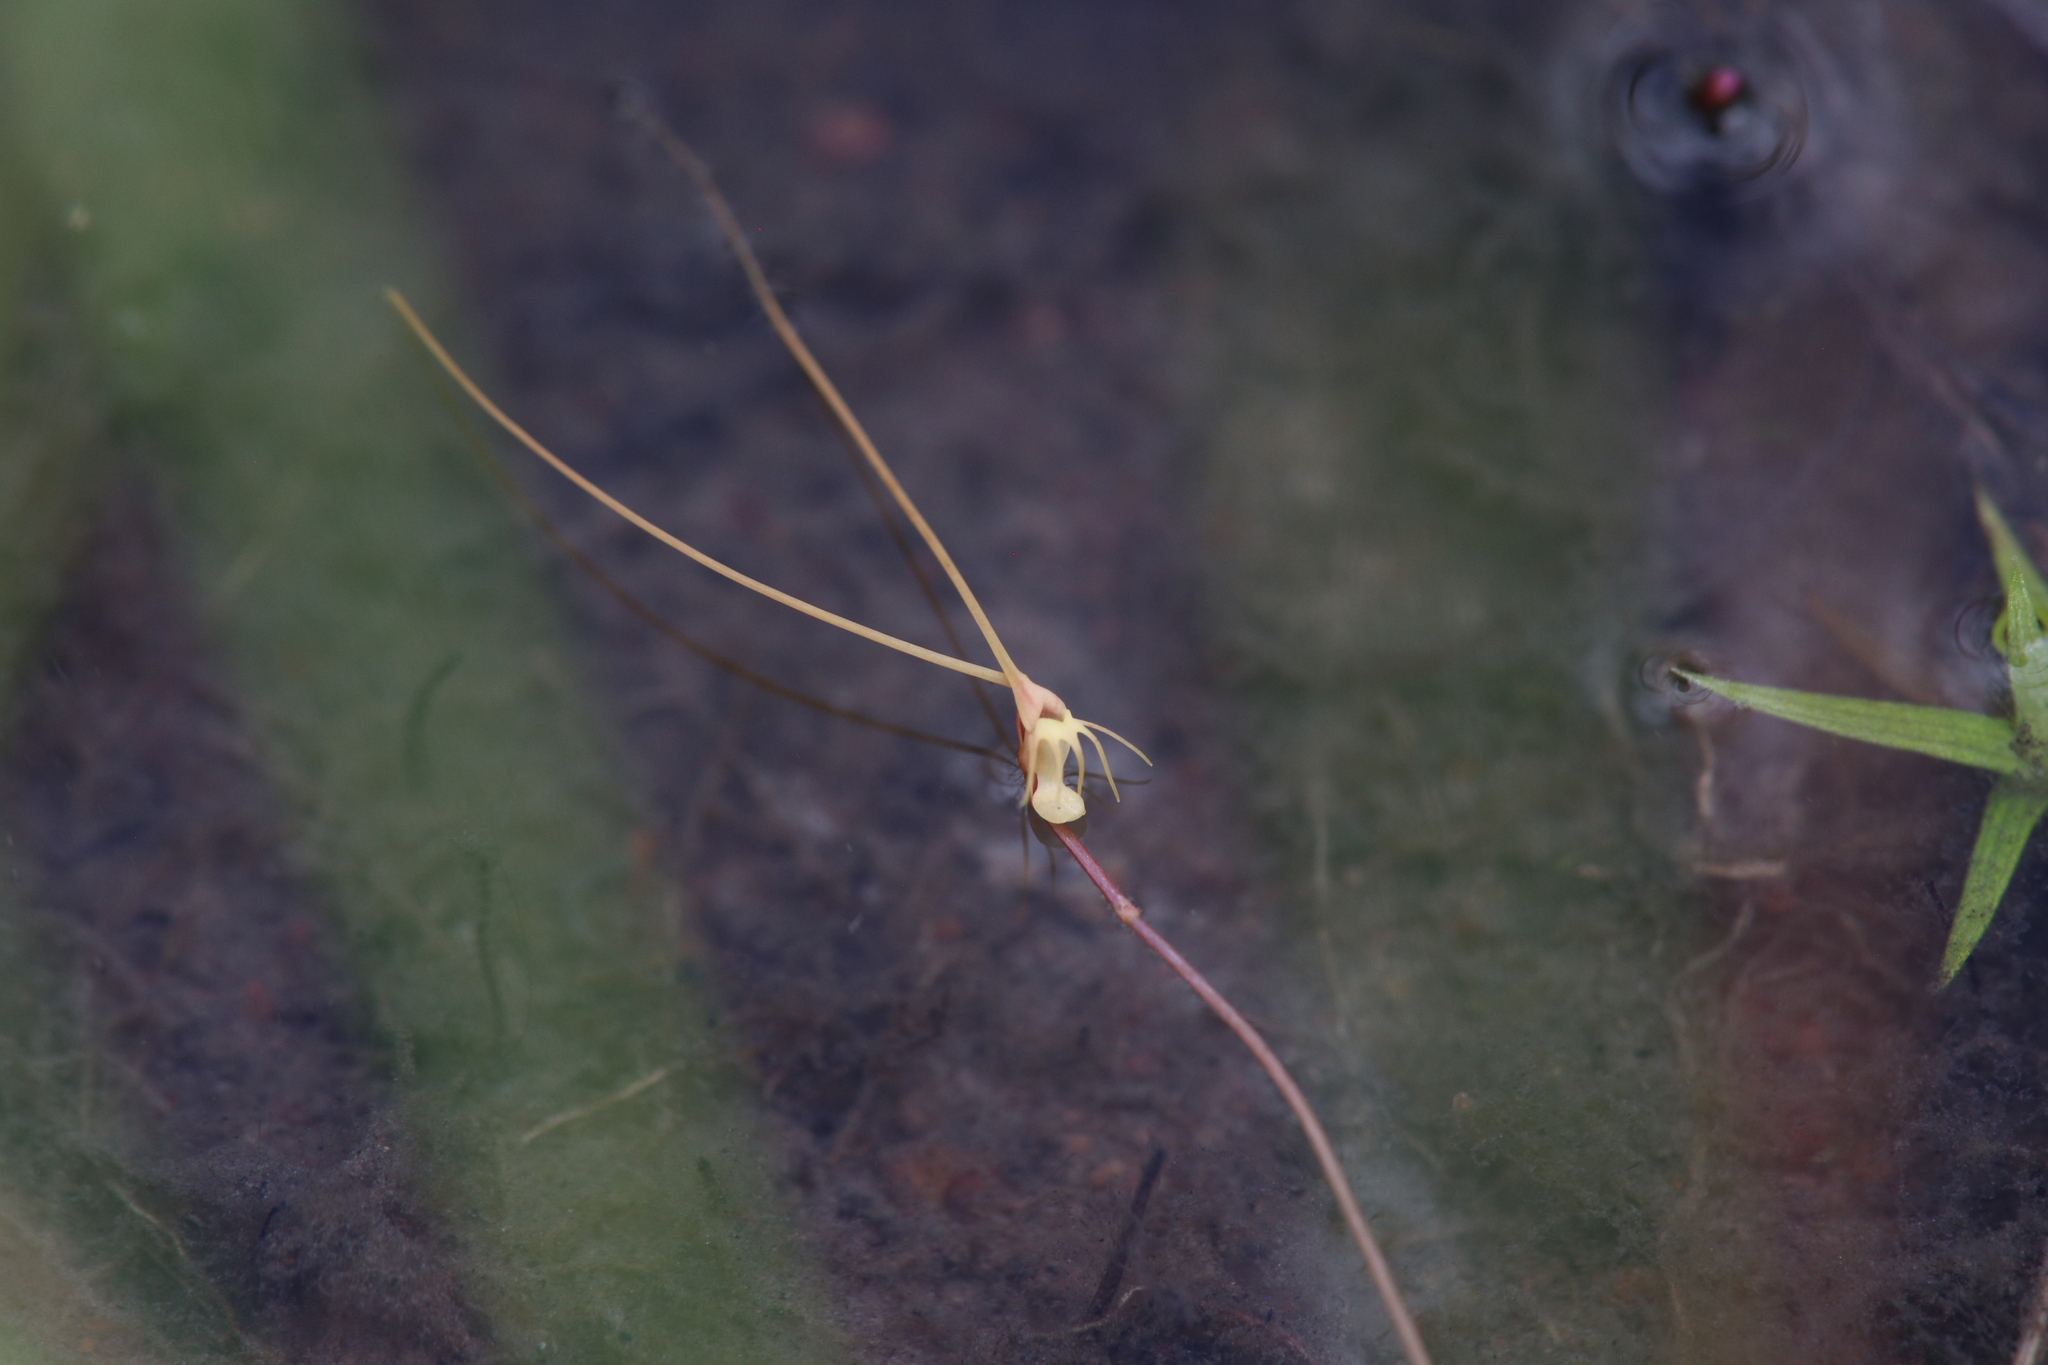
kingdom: Plantae
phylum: Tracheophyta
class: Magnoliopsida
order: Lamiales
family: Lentibulariaceae
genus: Utricularia
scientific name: Utricularia capilliflora
